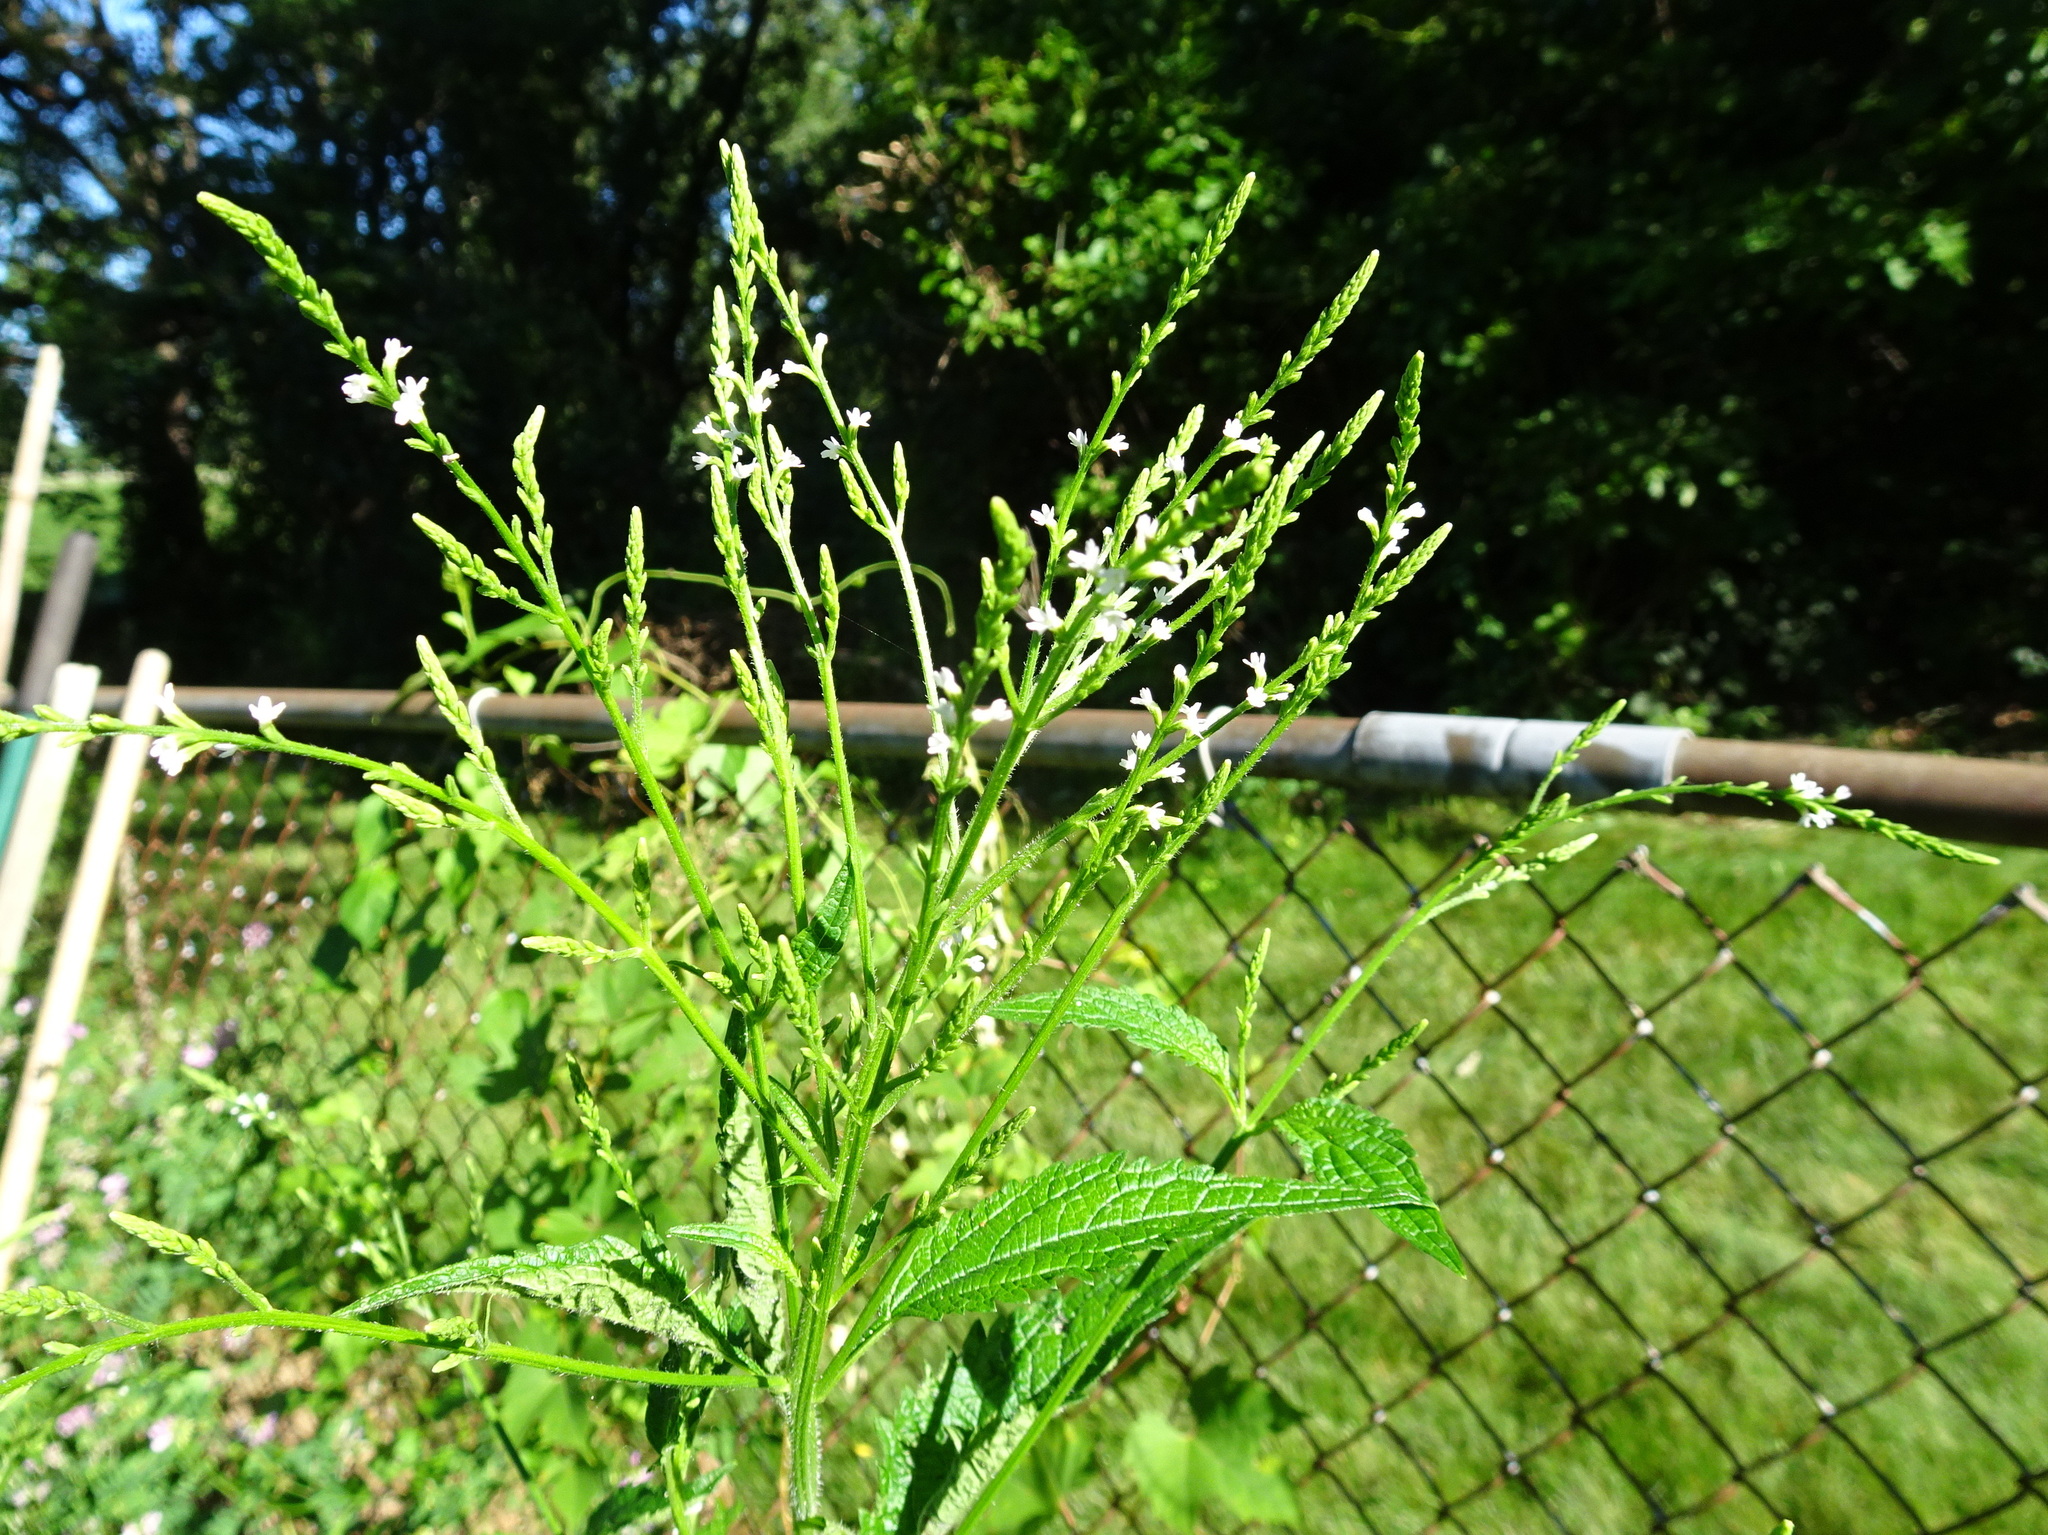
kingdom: Plantae
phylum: Tracheophyta
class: Magnoliopsida
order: Lamiales
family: Verbenaceae
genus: Verbena
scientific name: Verbena urticifolia
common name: Nettle-leaved vervain
